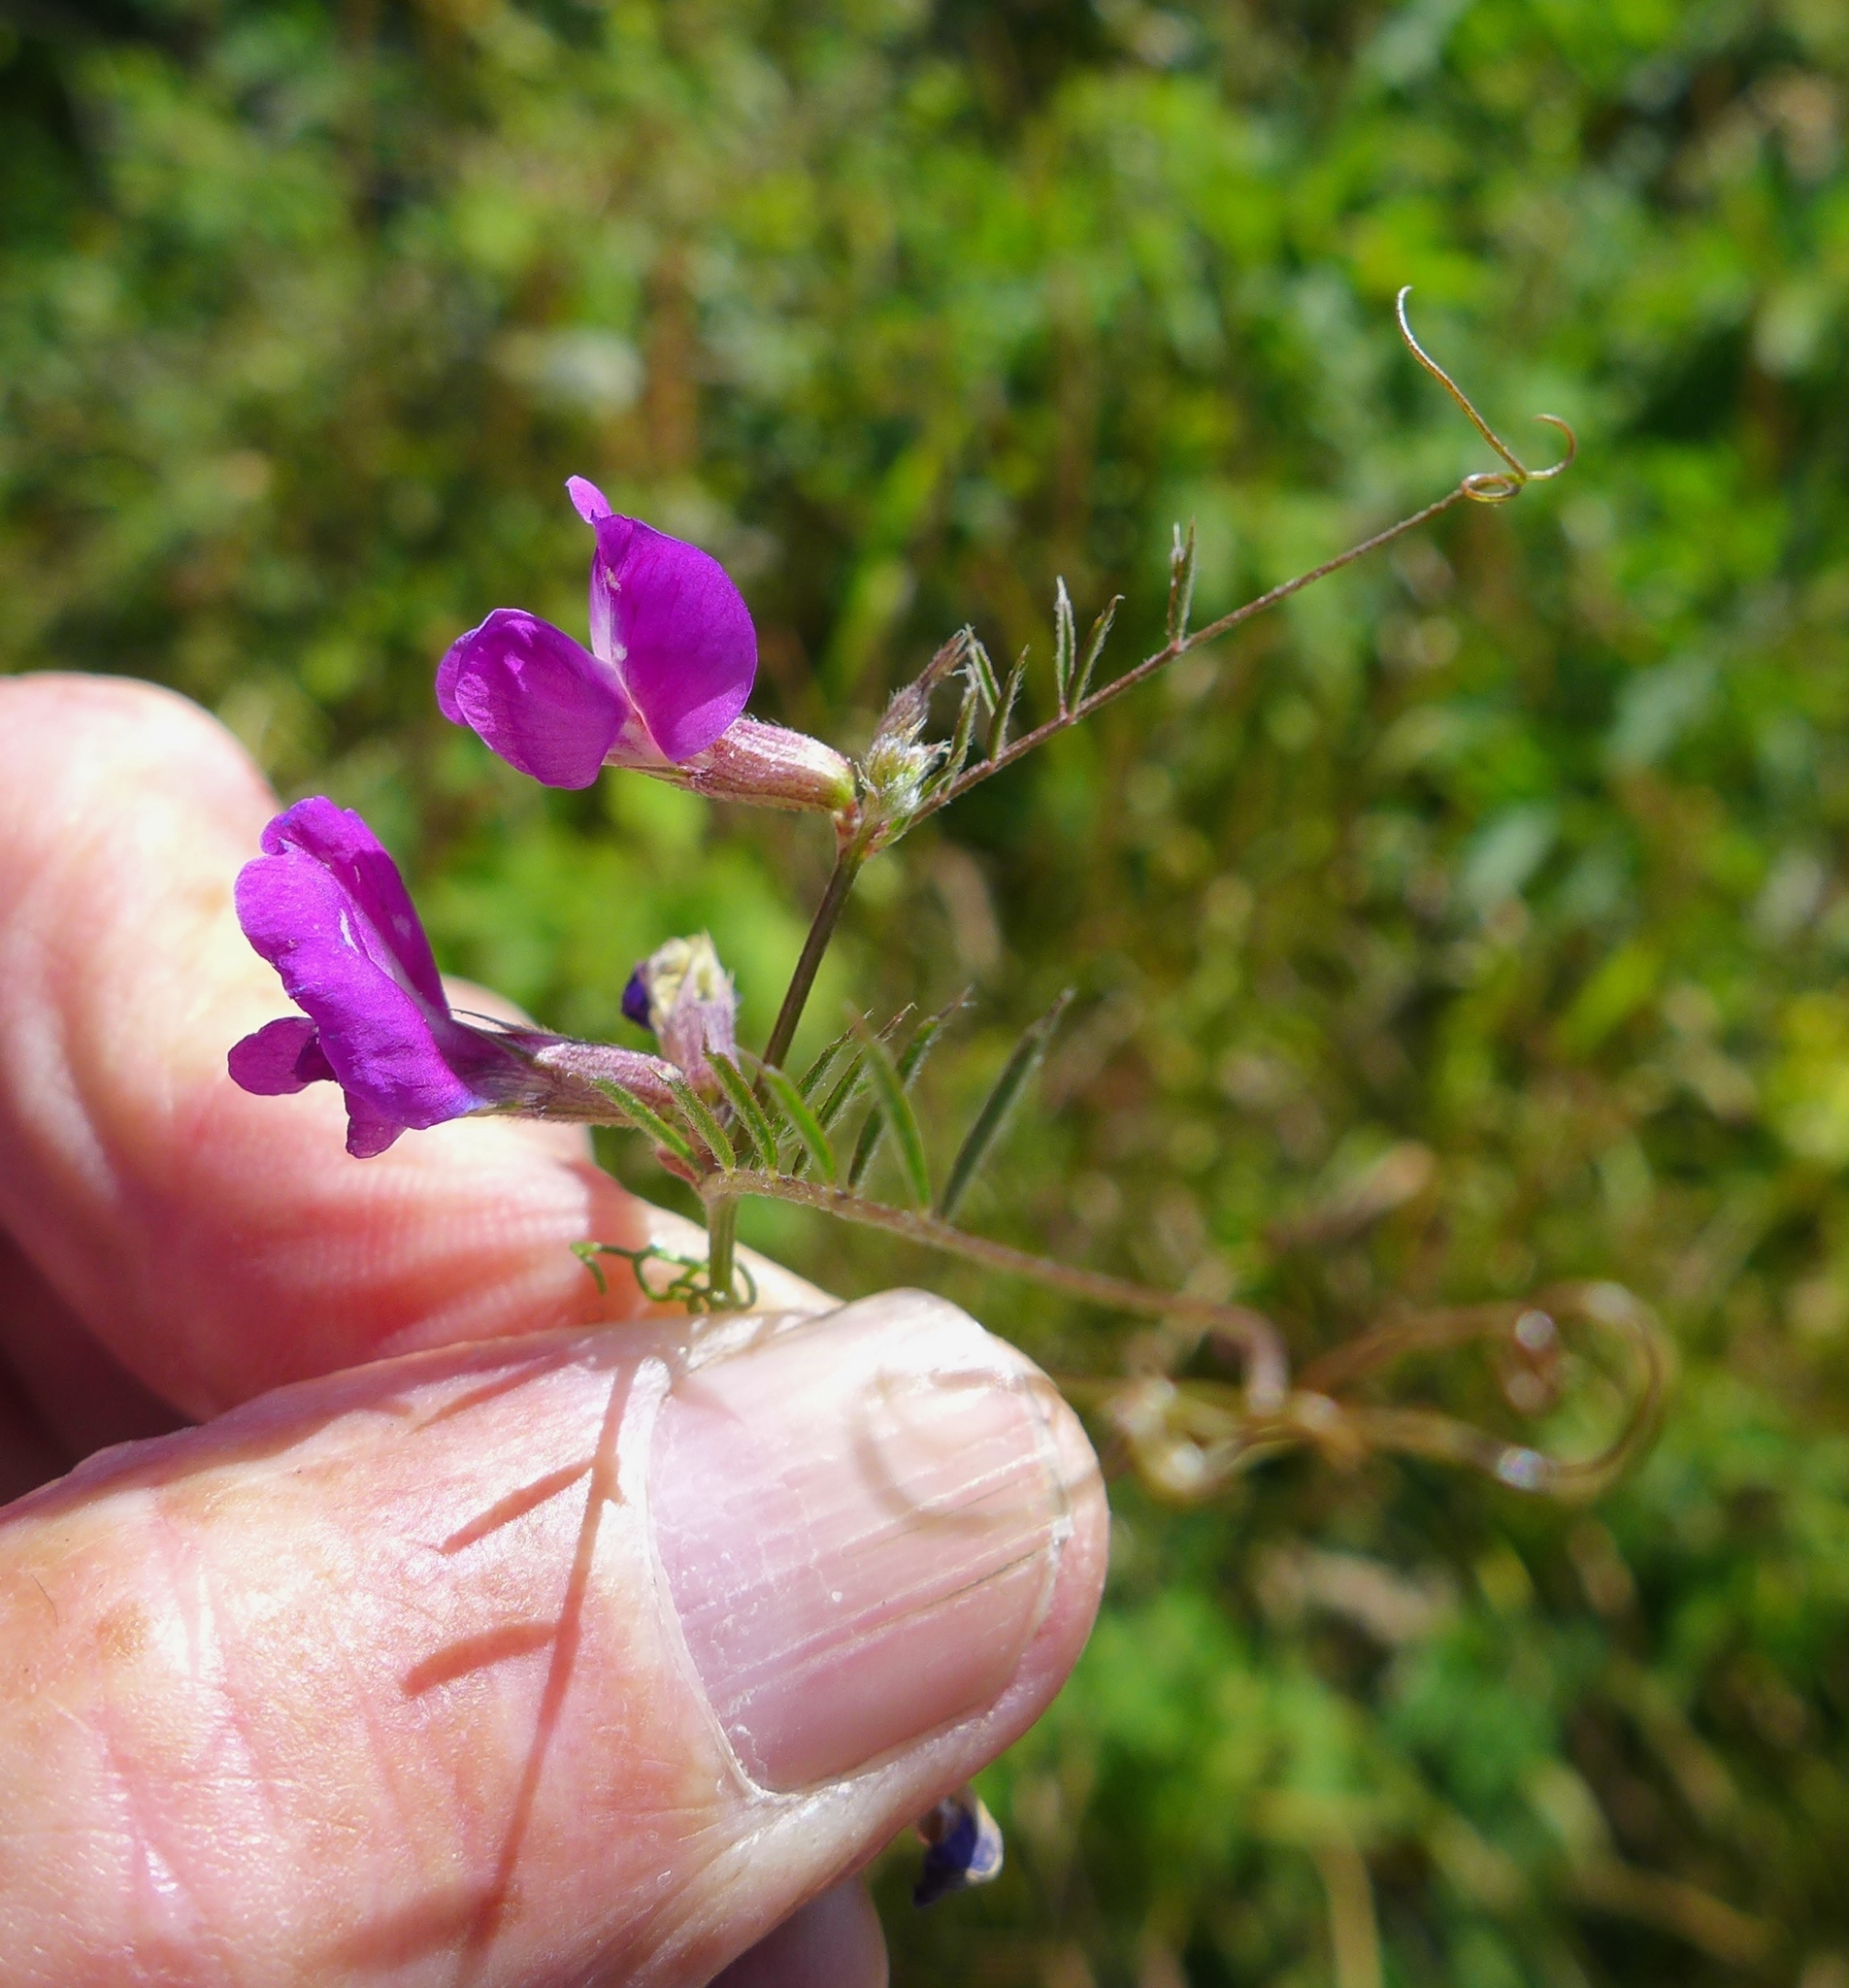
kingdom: Plantae
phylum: Tracheophyta
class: Magnoliopsida
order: Fabales
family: Fabaceae
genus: Vicia
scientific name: Vicia sativa
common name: Garden vetch
